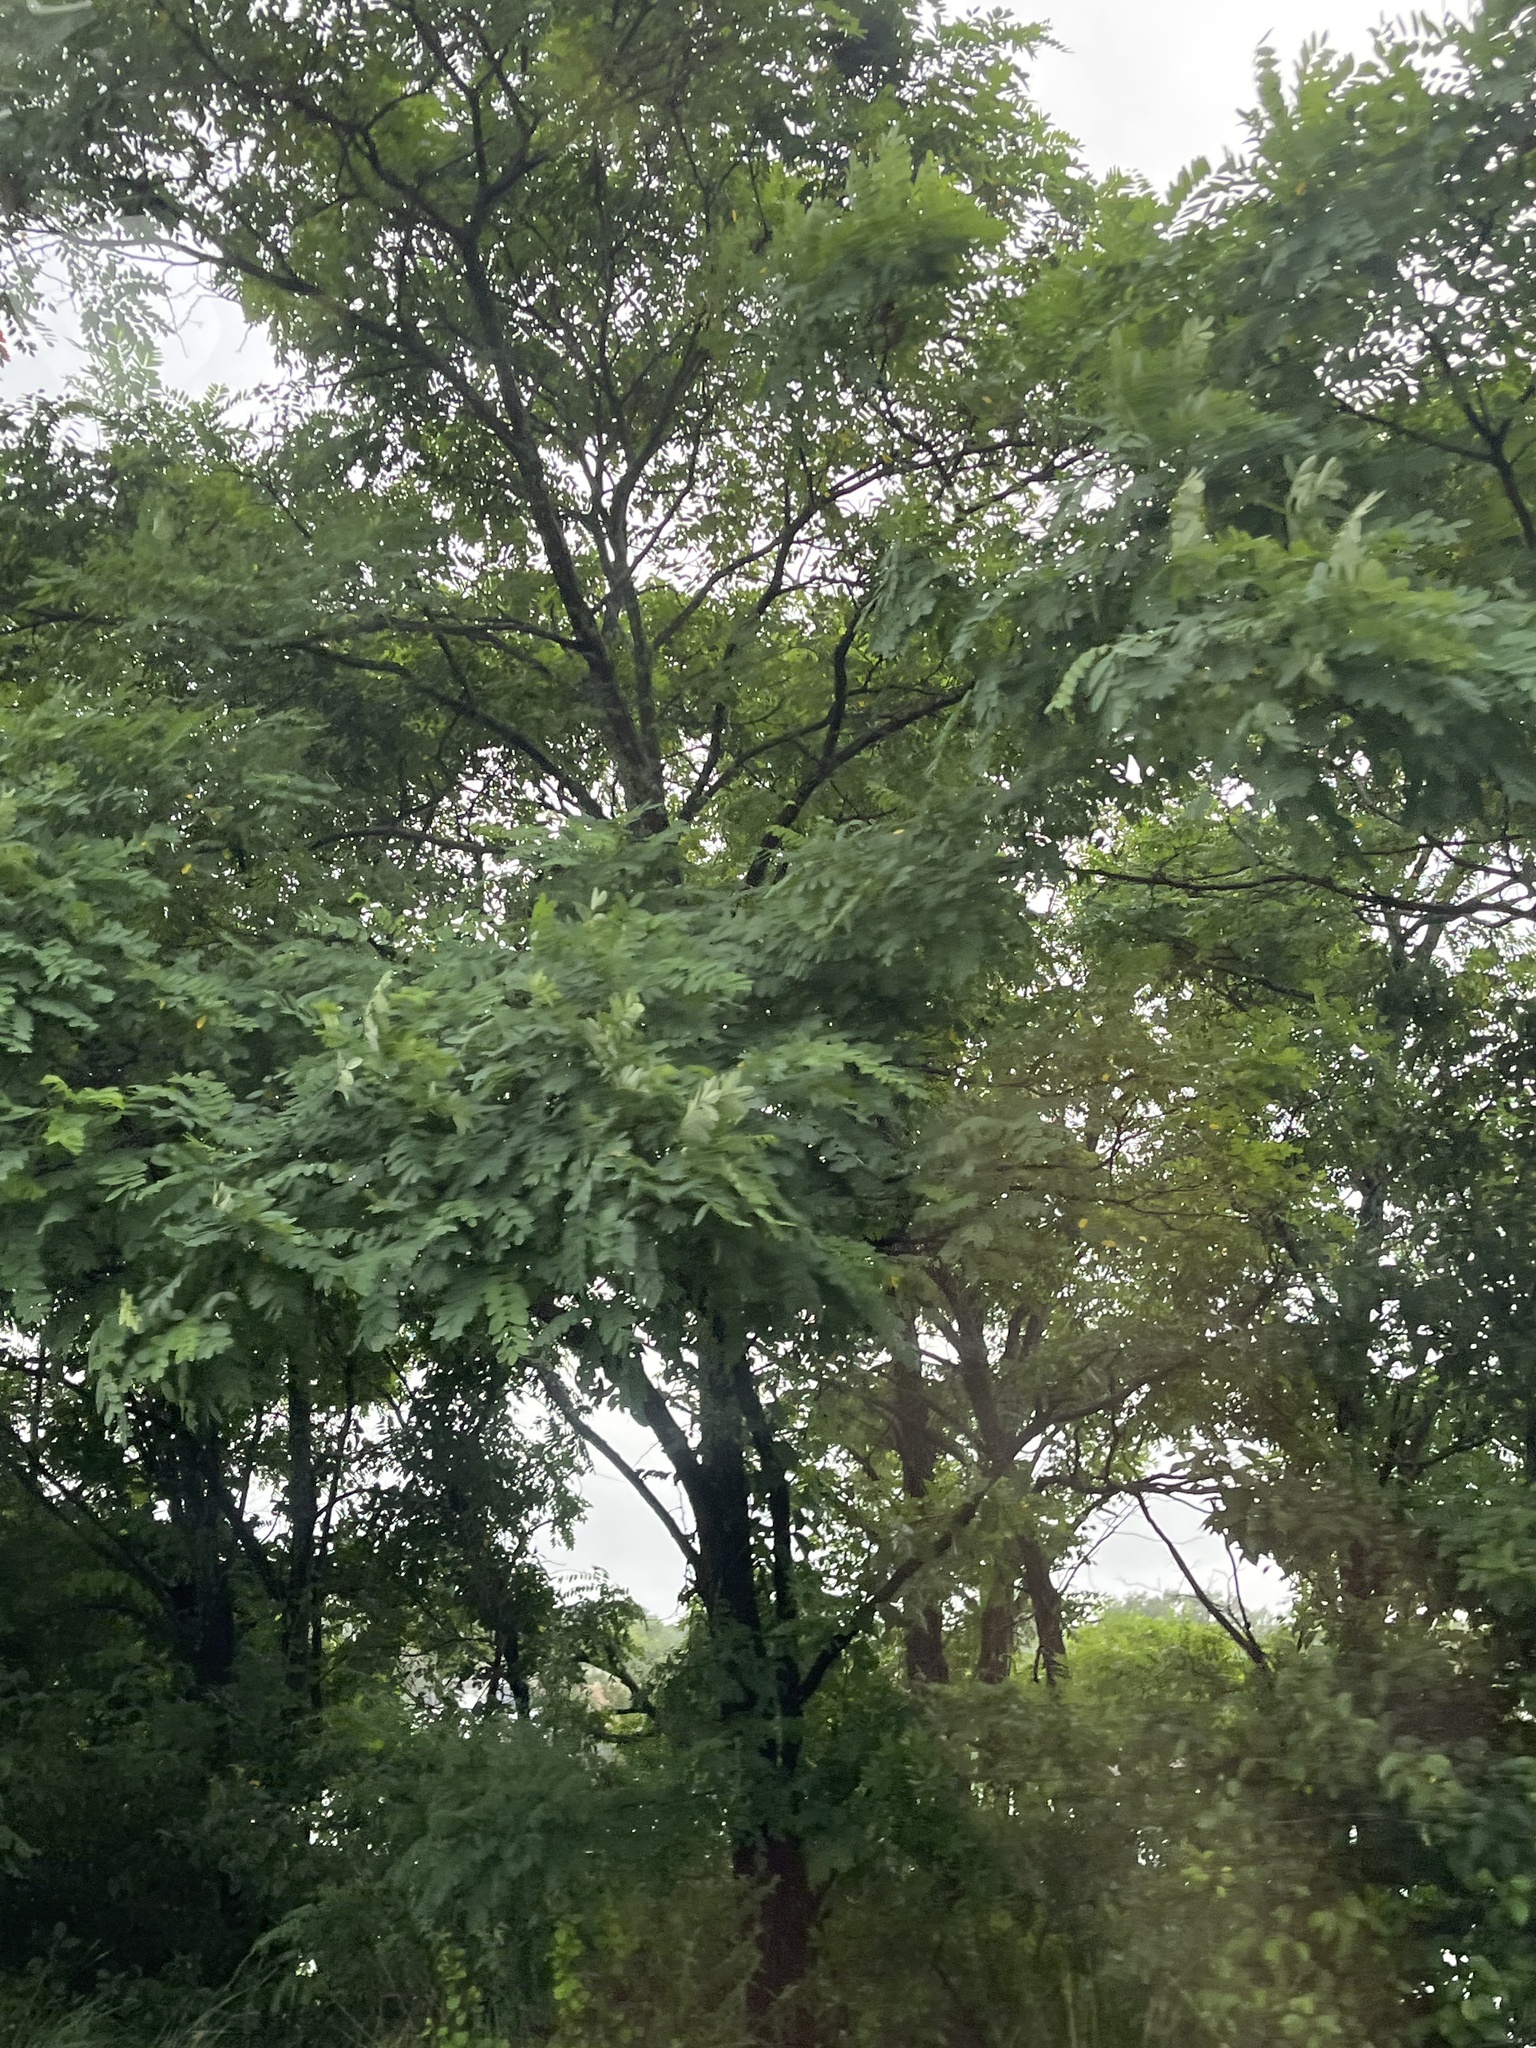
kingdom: Plantae
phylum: Tracheophyta
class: Magnoliopsida
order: Fabales
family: Fabaceae
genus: Robinia
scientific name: Robinia pseudoacacia
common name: Black locust
